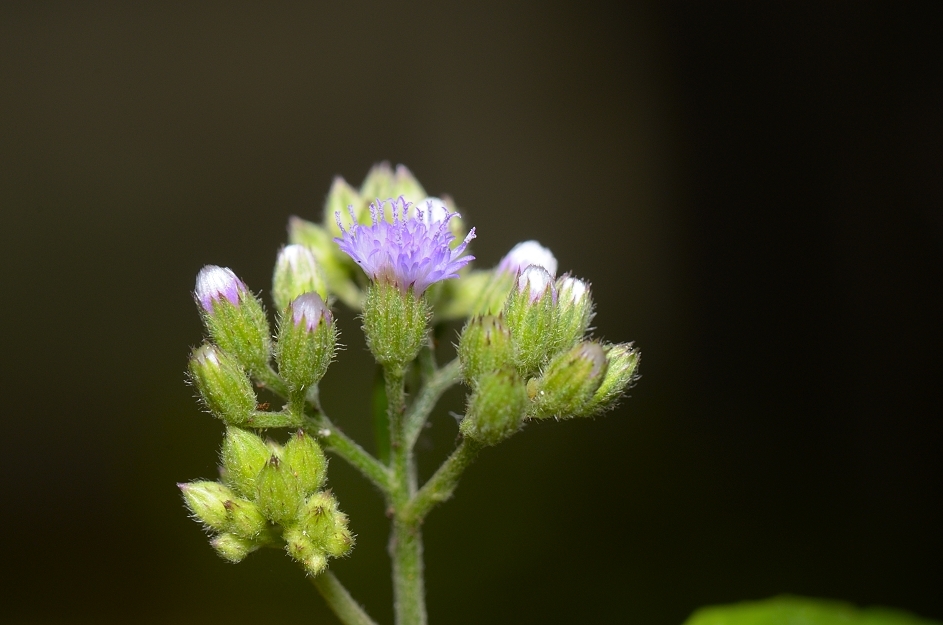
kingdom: Plantae
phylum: Tracheophyta
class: Magnoliopsida
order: Asterales
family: Asteraceae
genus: Cyanthillium
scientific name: Cyanthillium cinereum
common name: Little ironweed
